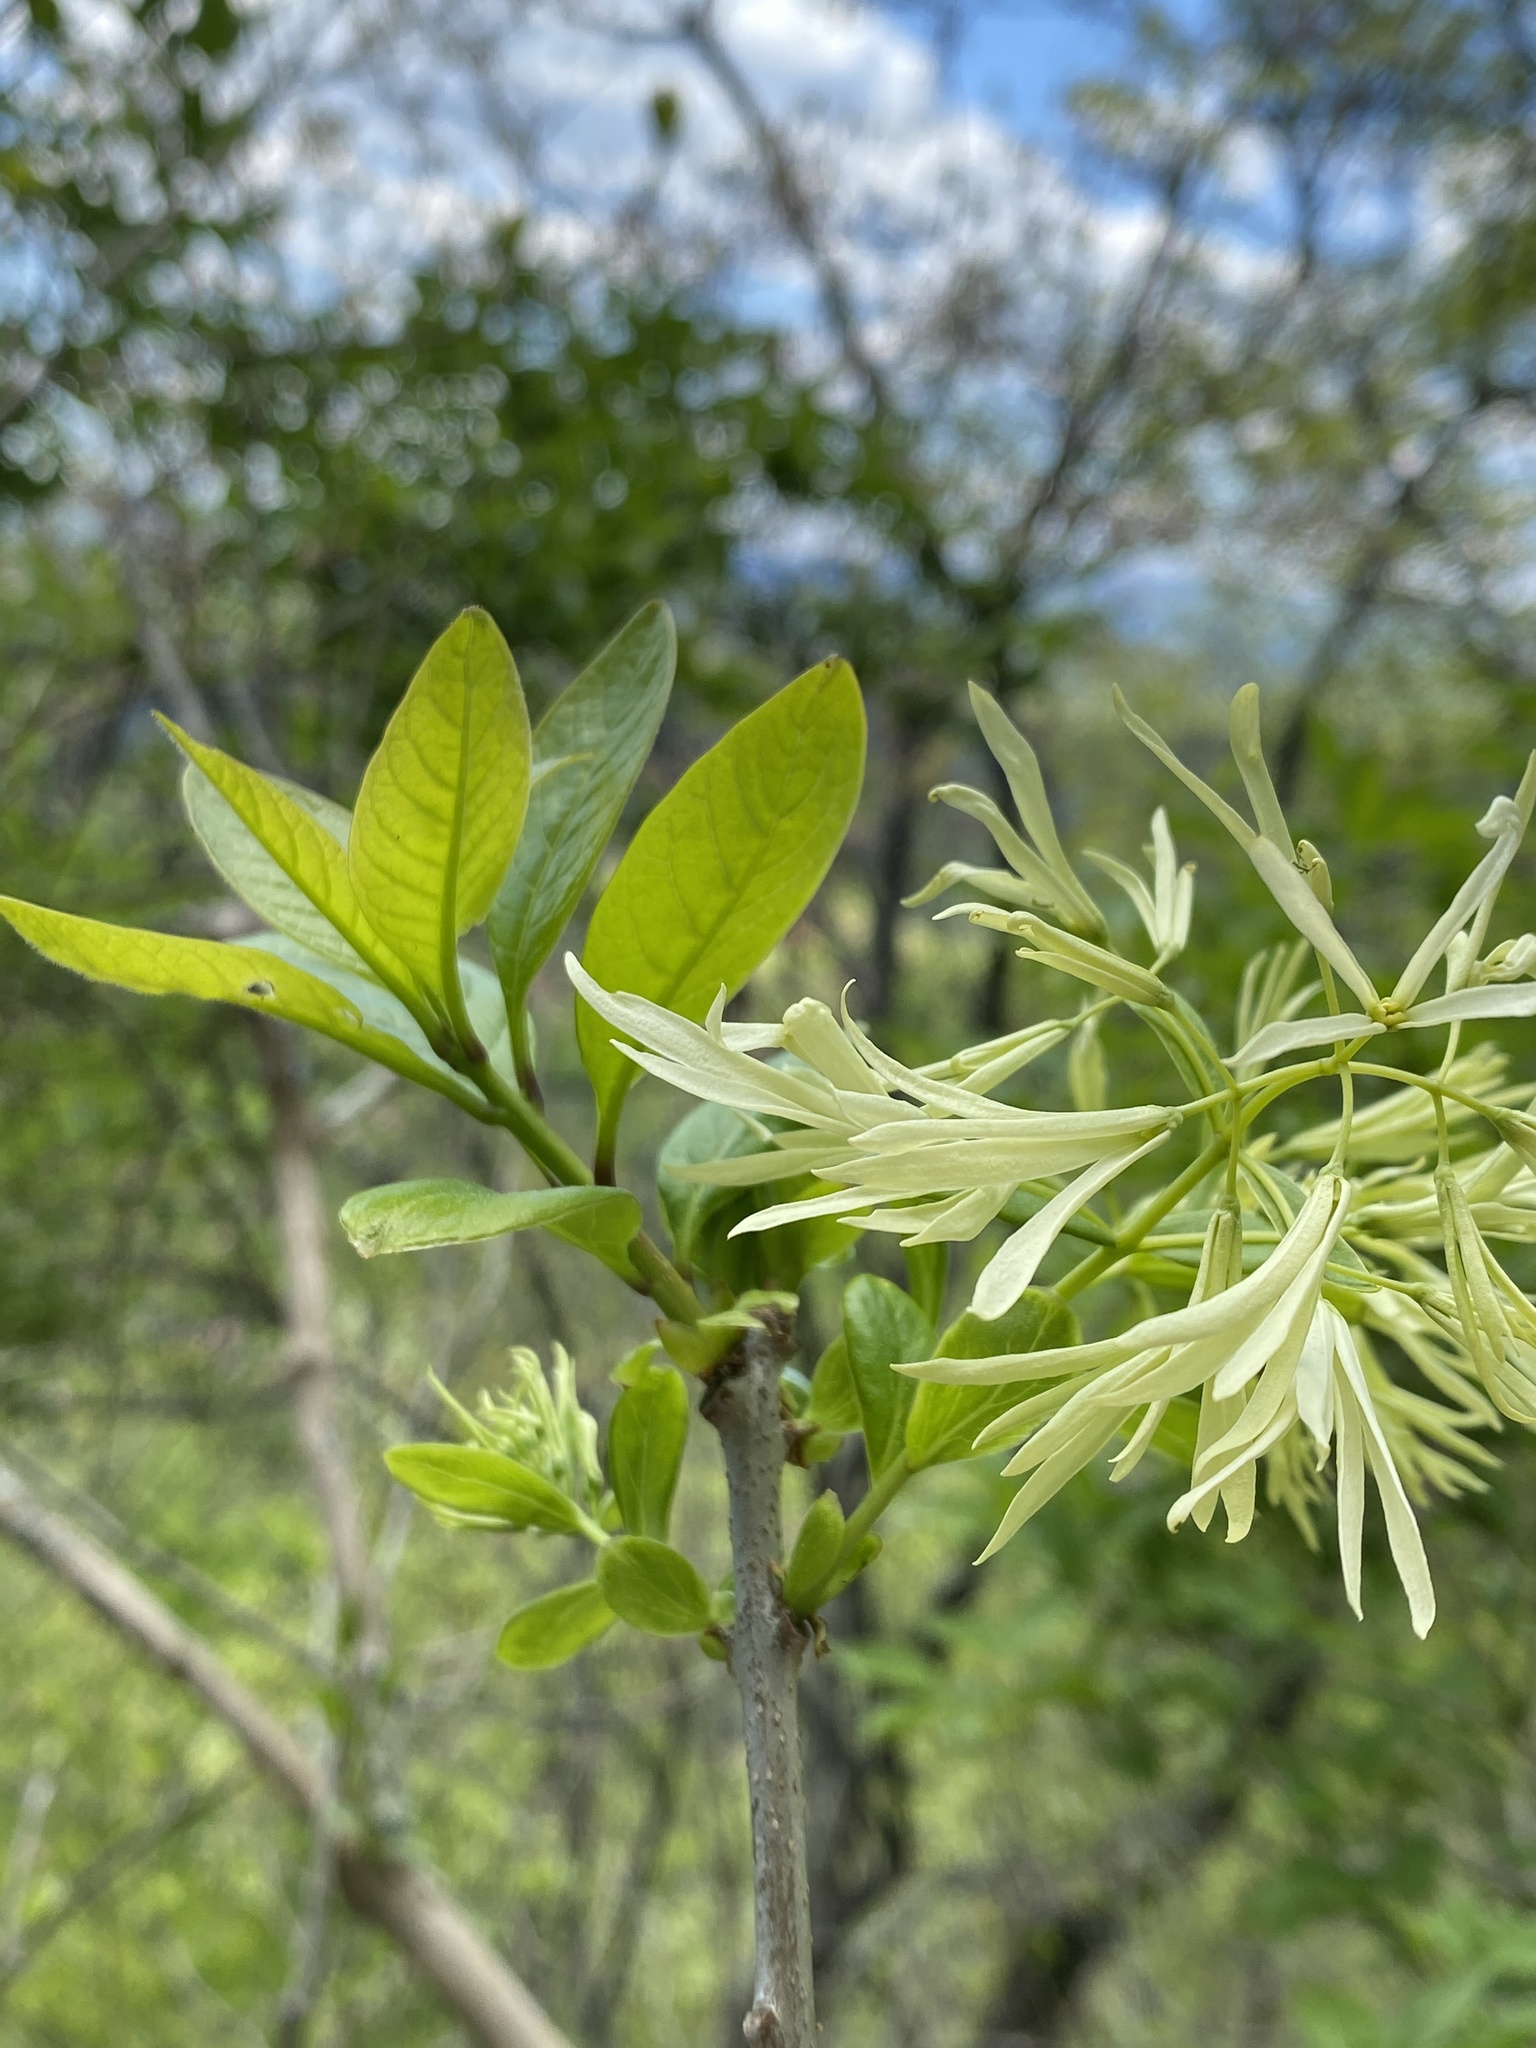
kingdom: Plantae
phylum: Tracheophyta
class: Magnoliopsida
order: Lamiales
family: Oleaceae
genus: Chionanthus
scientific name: Chionanthus virginicus
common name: American fringetree
